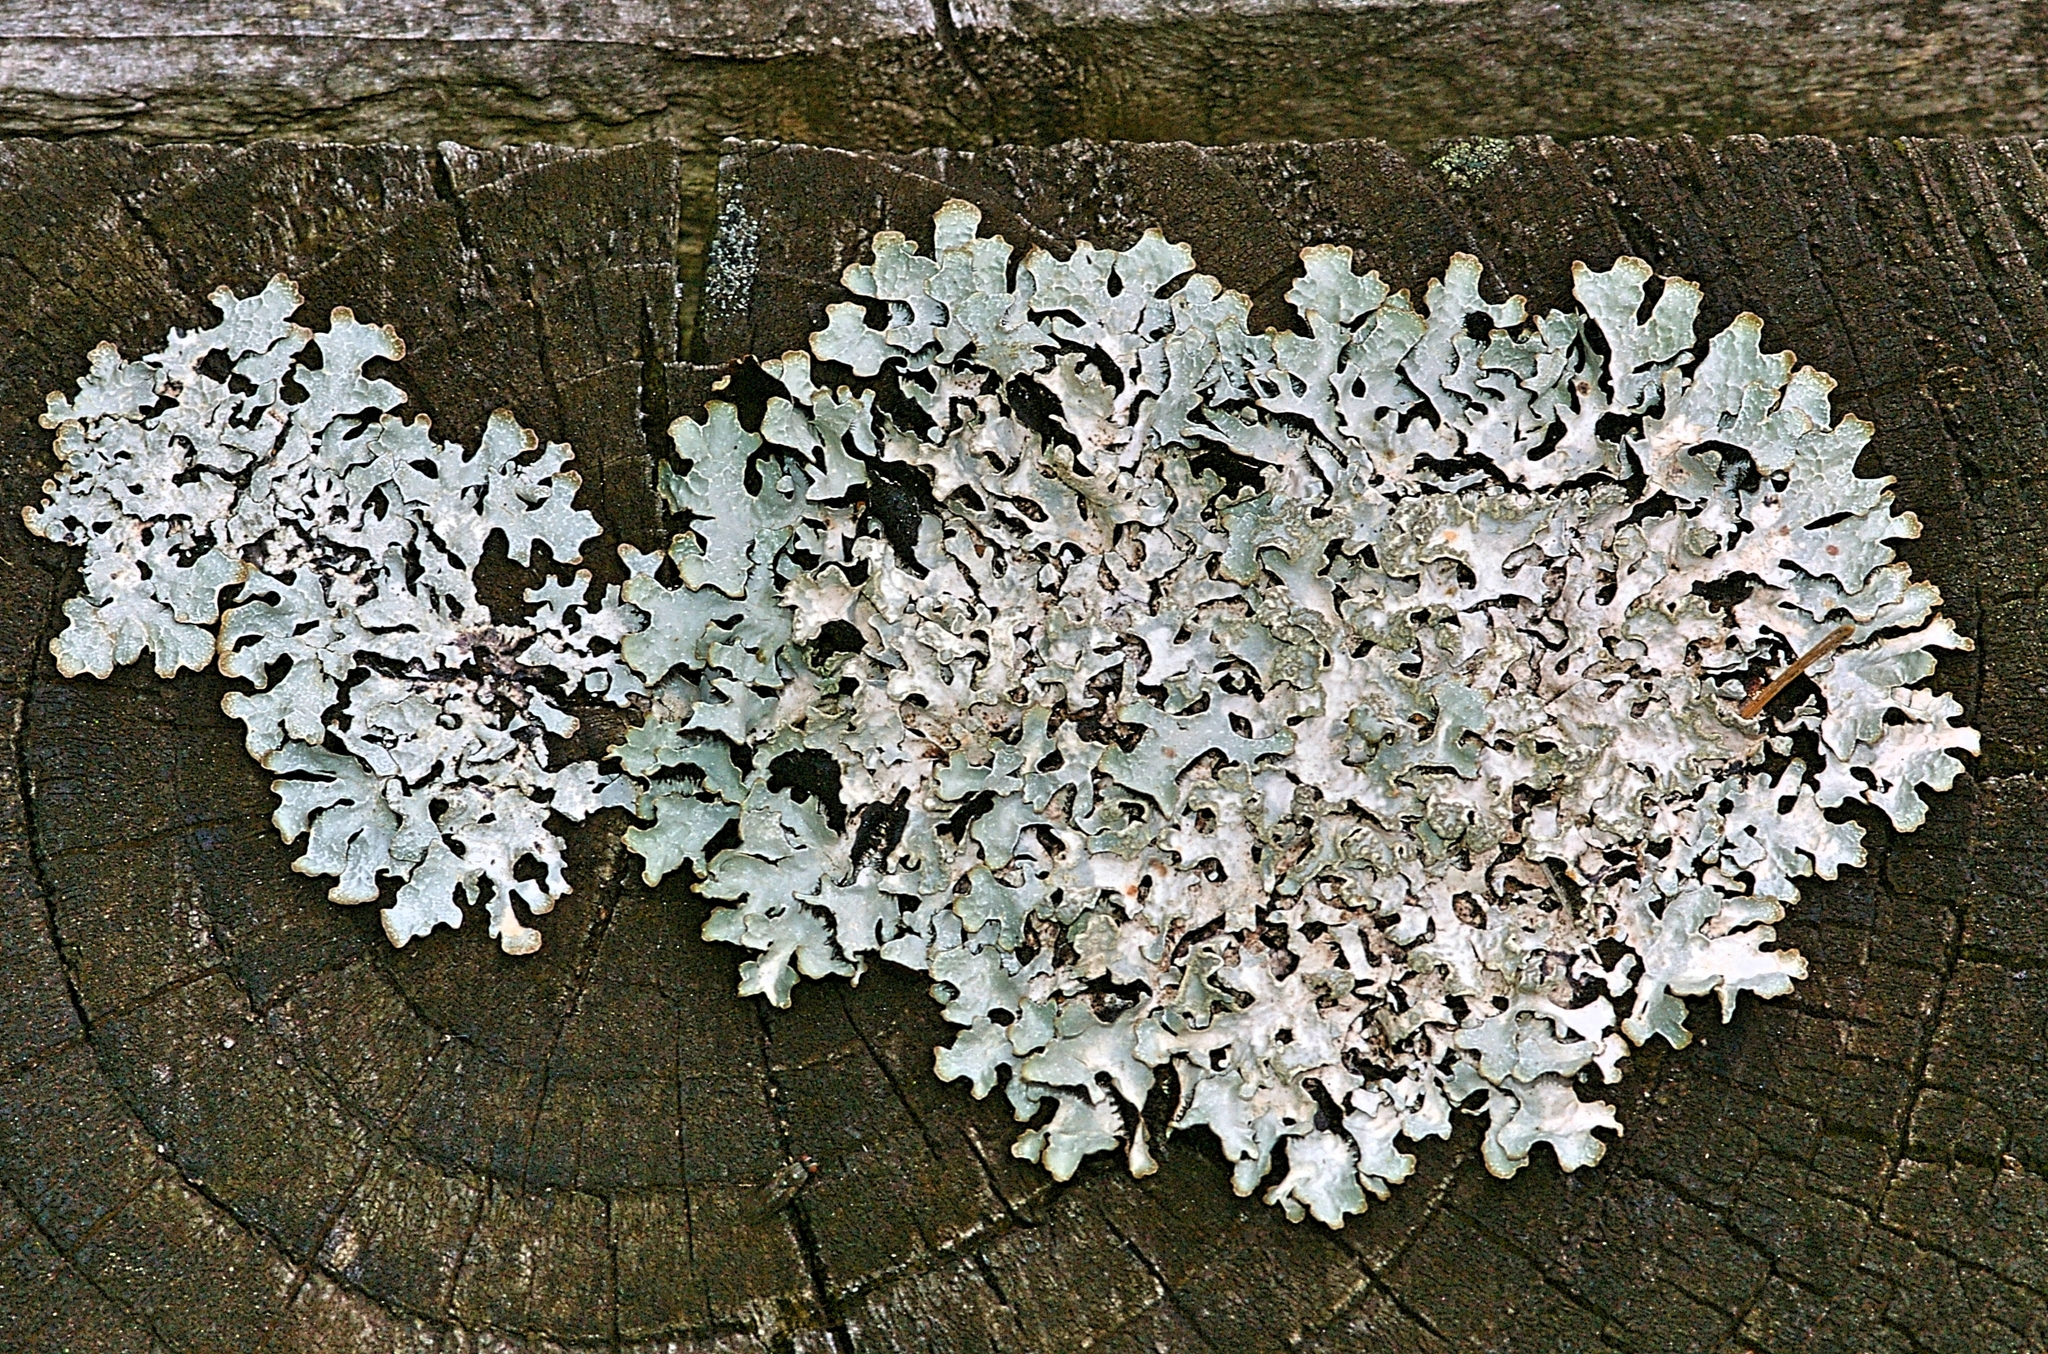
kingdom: Fungi
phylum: Ascomycota
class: Lecanoromycetes
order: Lecanorales
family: Parmeliaceae
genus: Parmelia
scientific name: Parmelia sulcata
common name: Netted shield lichen
